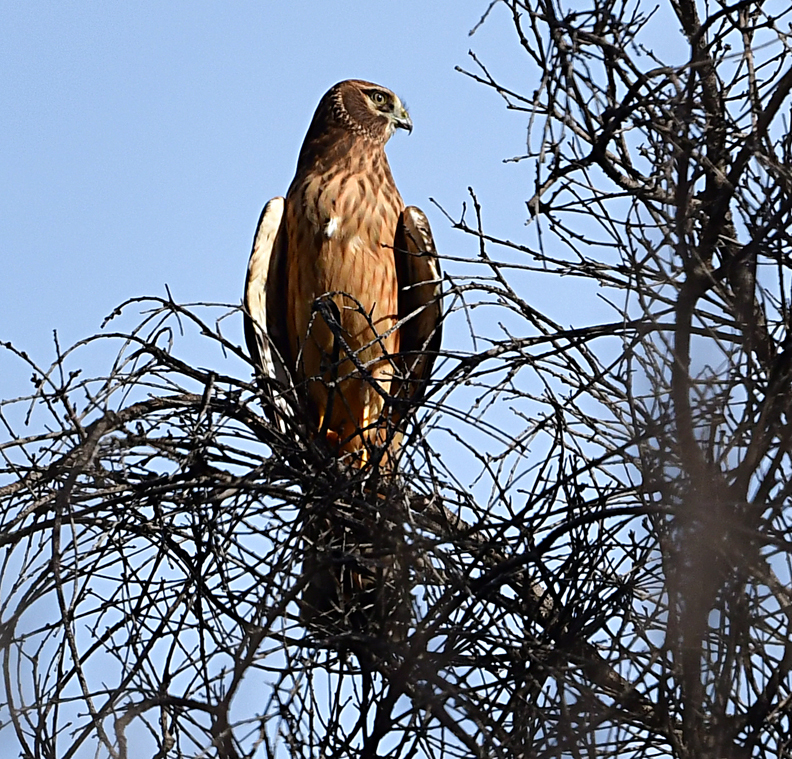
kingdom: Animalia
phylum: Chordata
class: Aves
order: Accipitriformes
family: Accipitridae
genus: Circus
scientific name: Circus cyaneus
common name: Hen harrier
